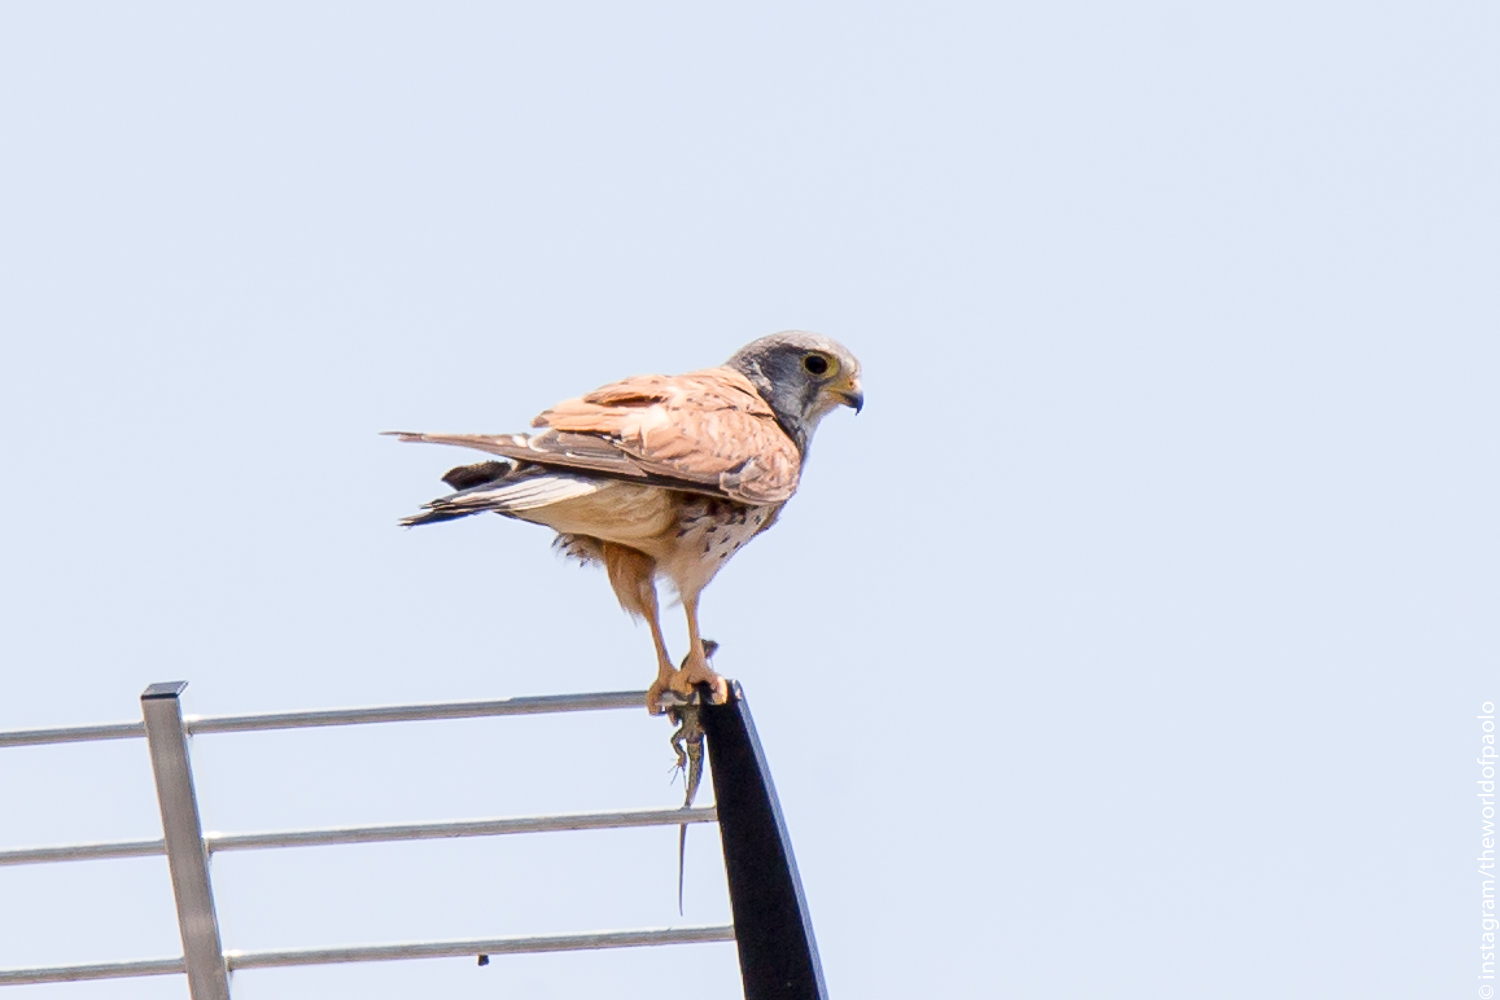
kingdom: Animalia
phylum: Chordata
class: Aves
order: Falconiformes
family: Falconidae
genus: Falco
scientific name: Falco tinnunculus
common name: Common kestrel
